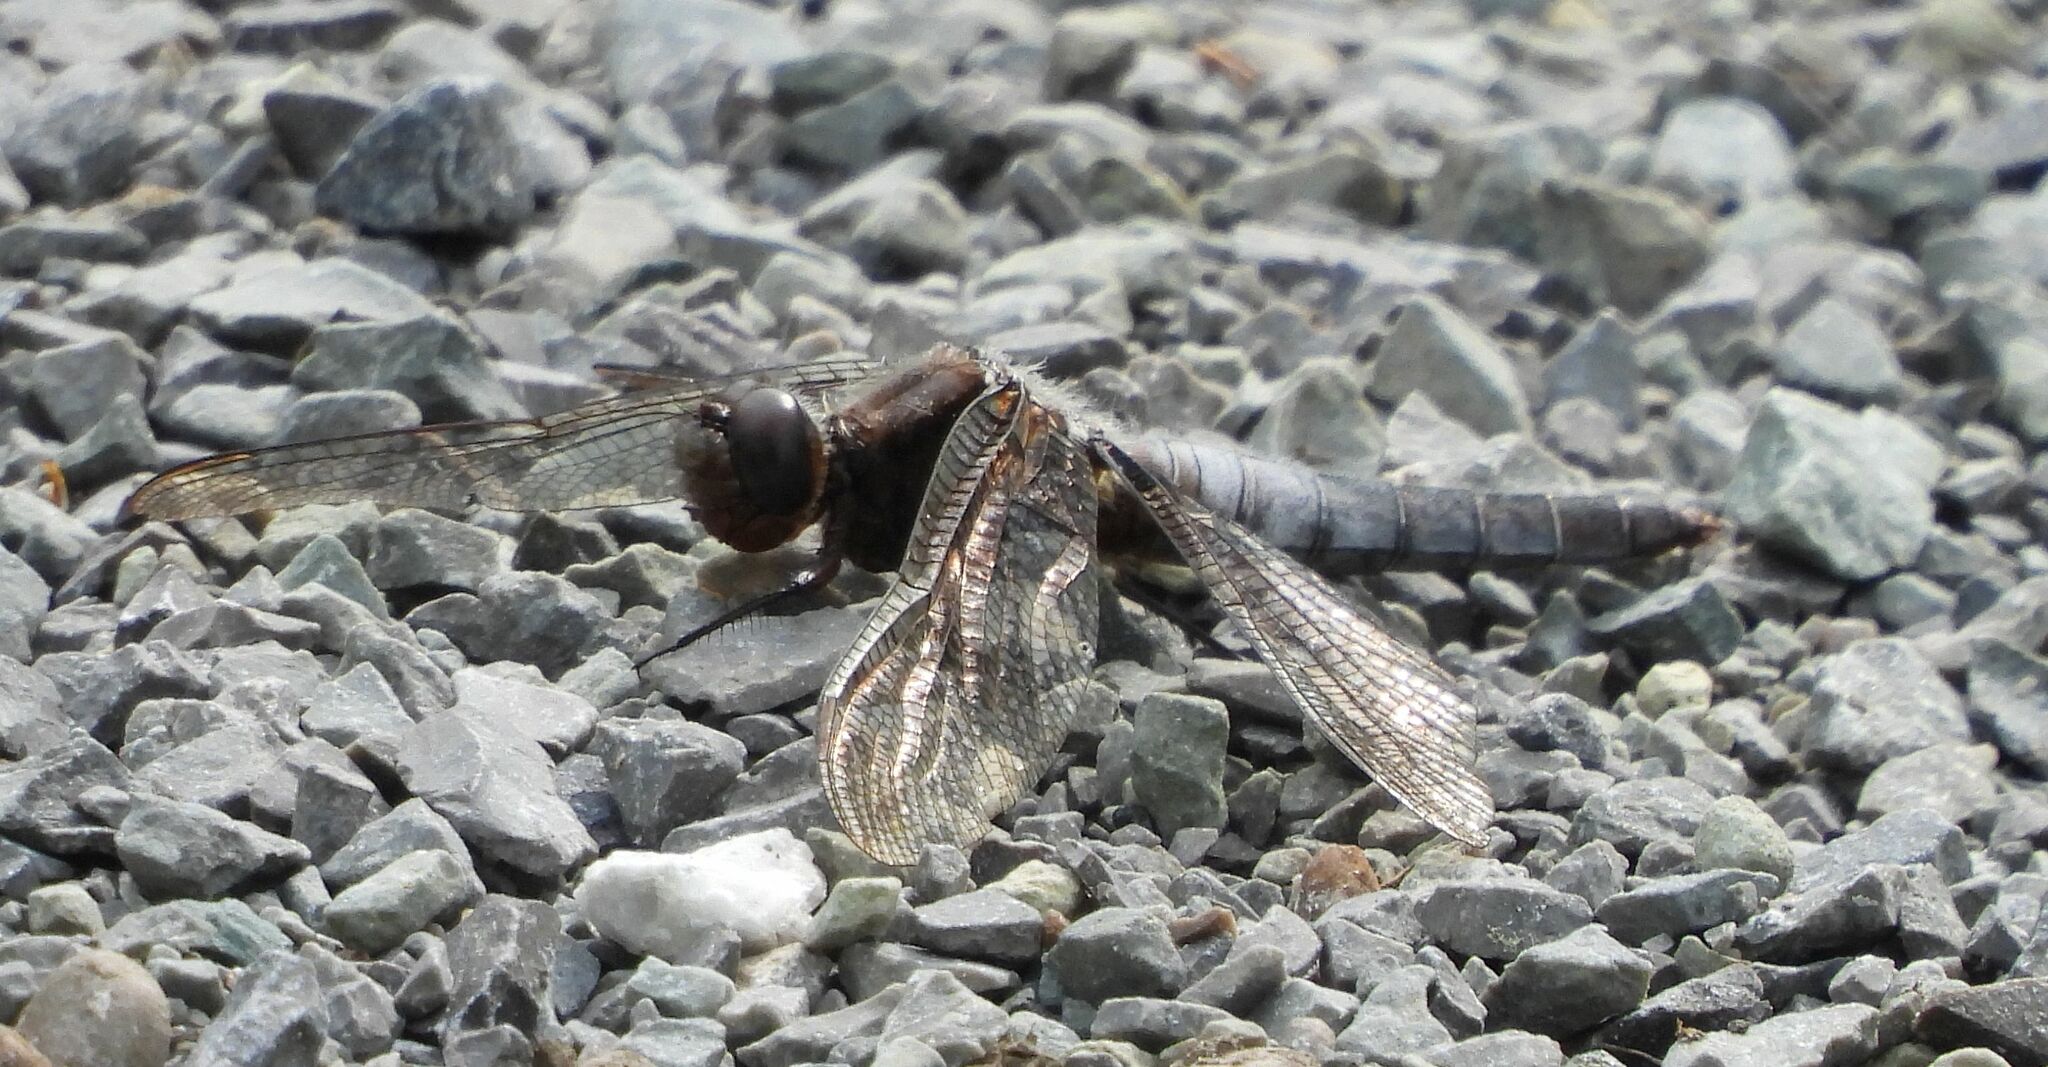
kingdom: Animalia
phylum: Arthropoda
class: Insecta
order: Odonata
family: Libellulidae
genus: Ladona
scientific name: Ladona julia
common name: Chalk-fronted corporal
